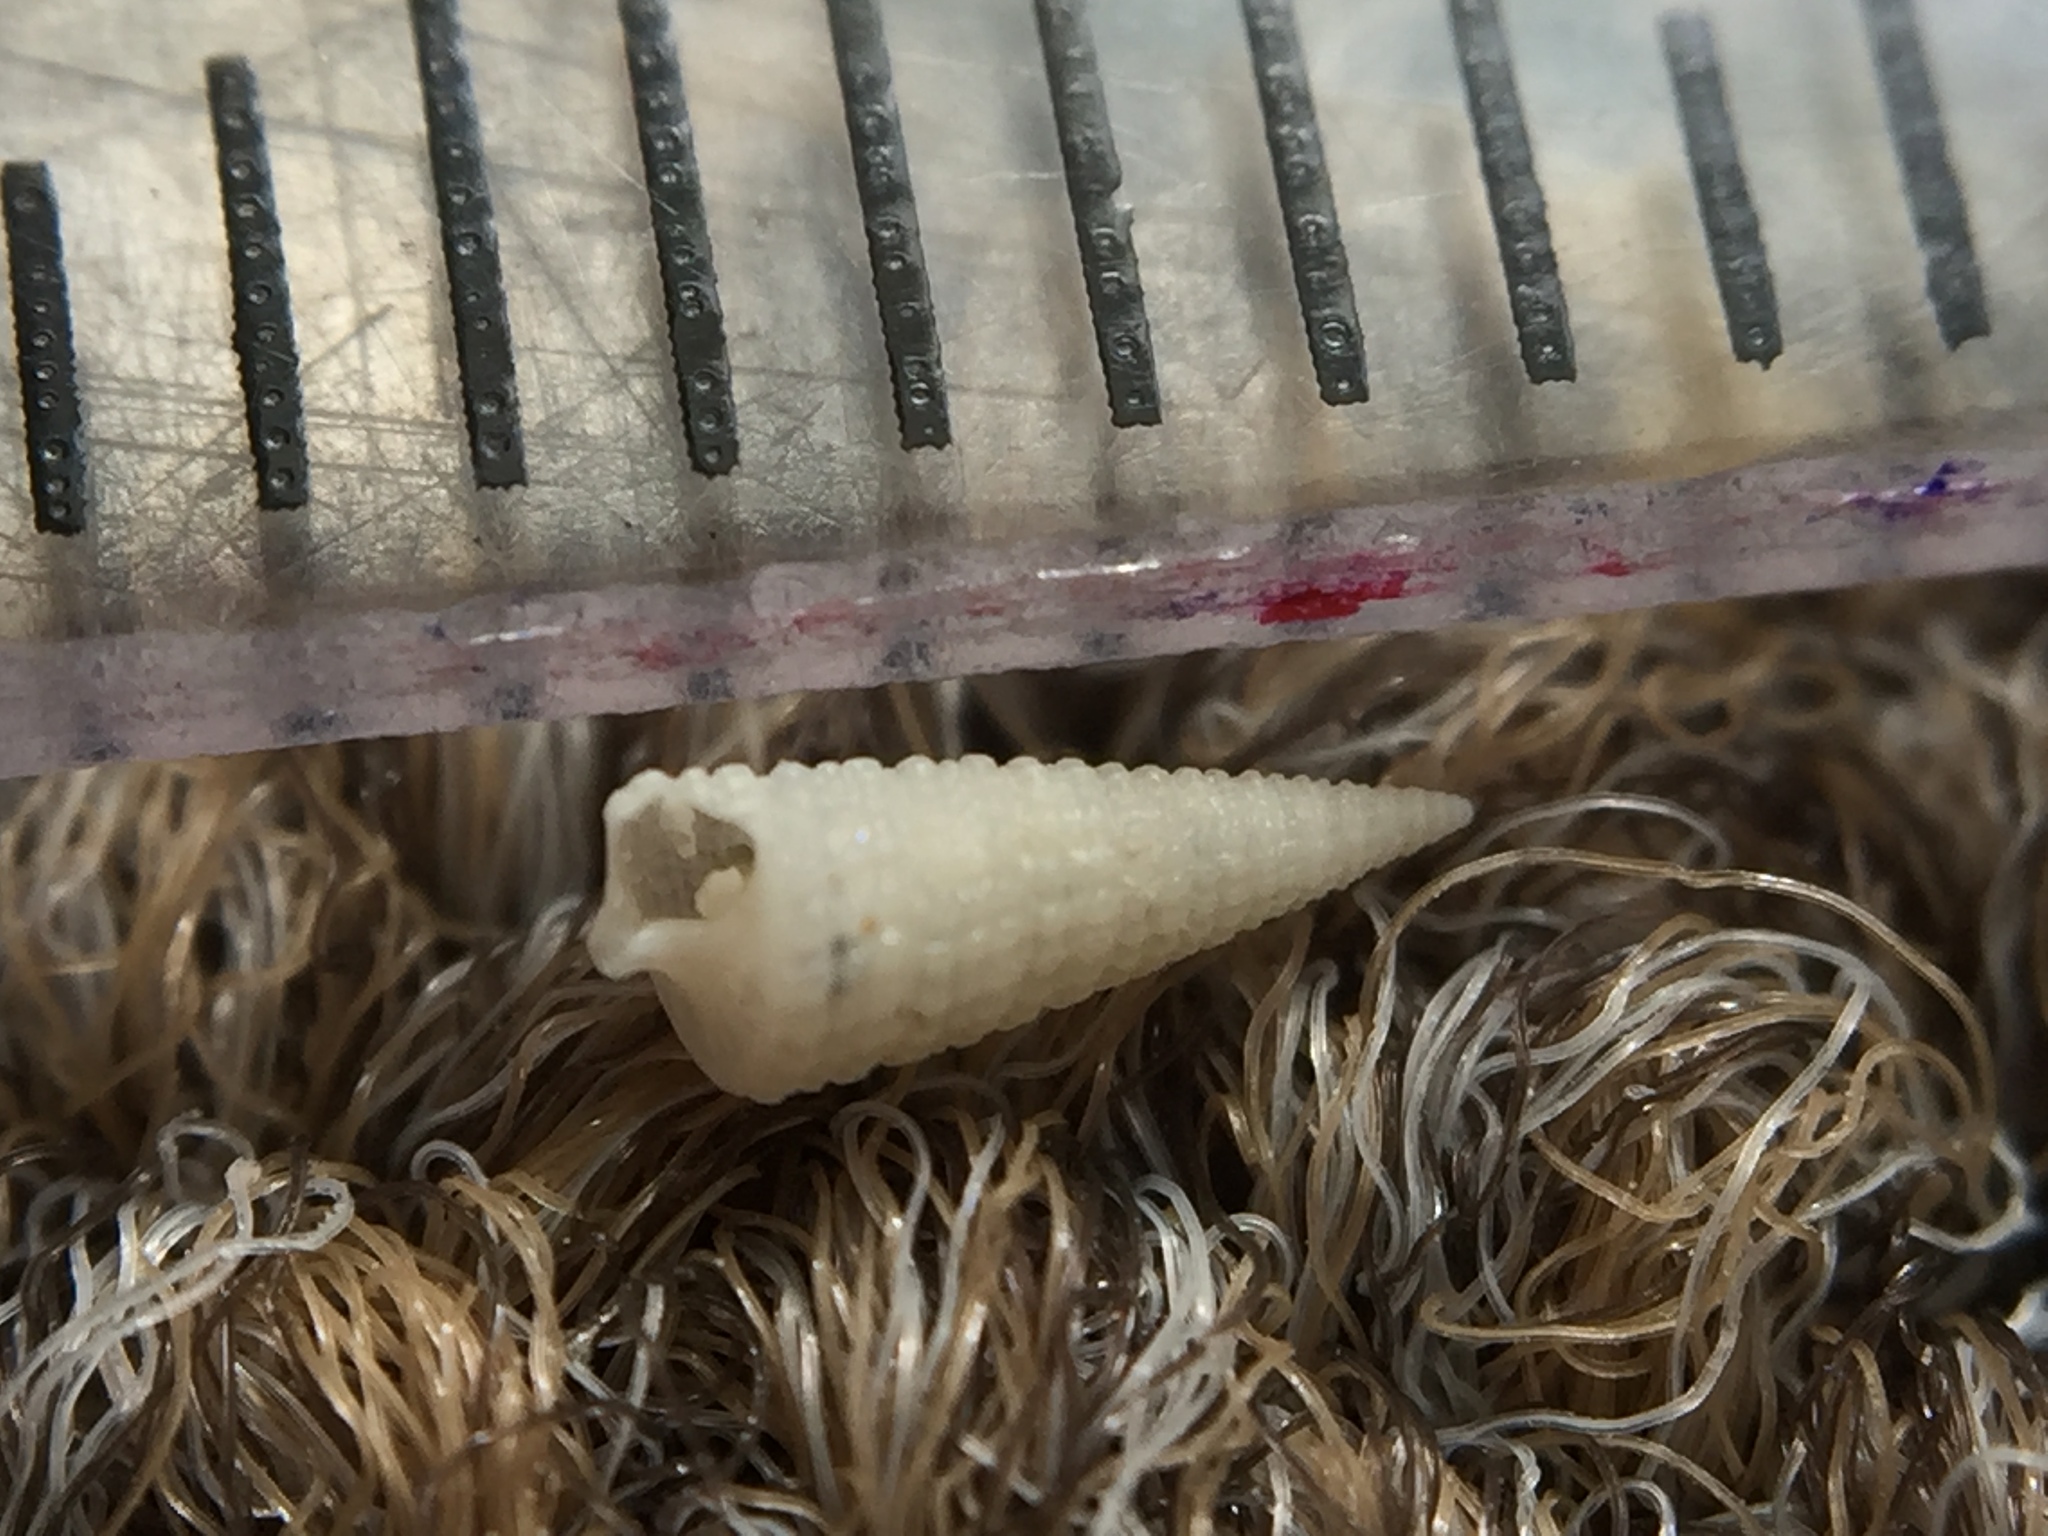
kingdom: Animalia
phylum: Mollusca
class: Gastropoda
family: Triphoridae
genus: Bouchetriphora
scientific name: Bouchetriphora pallida
